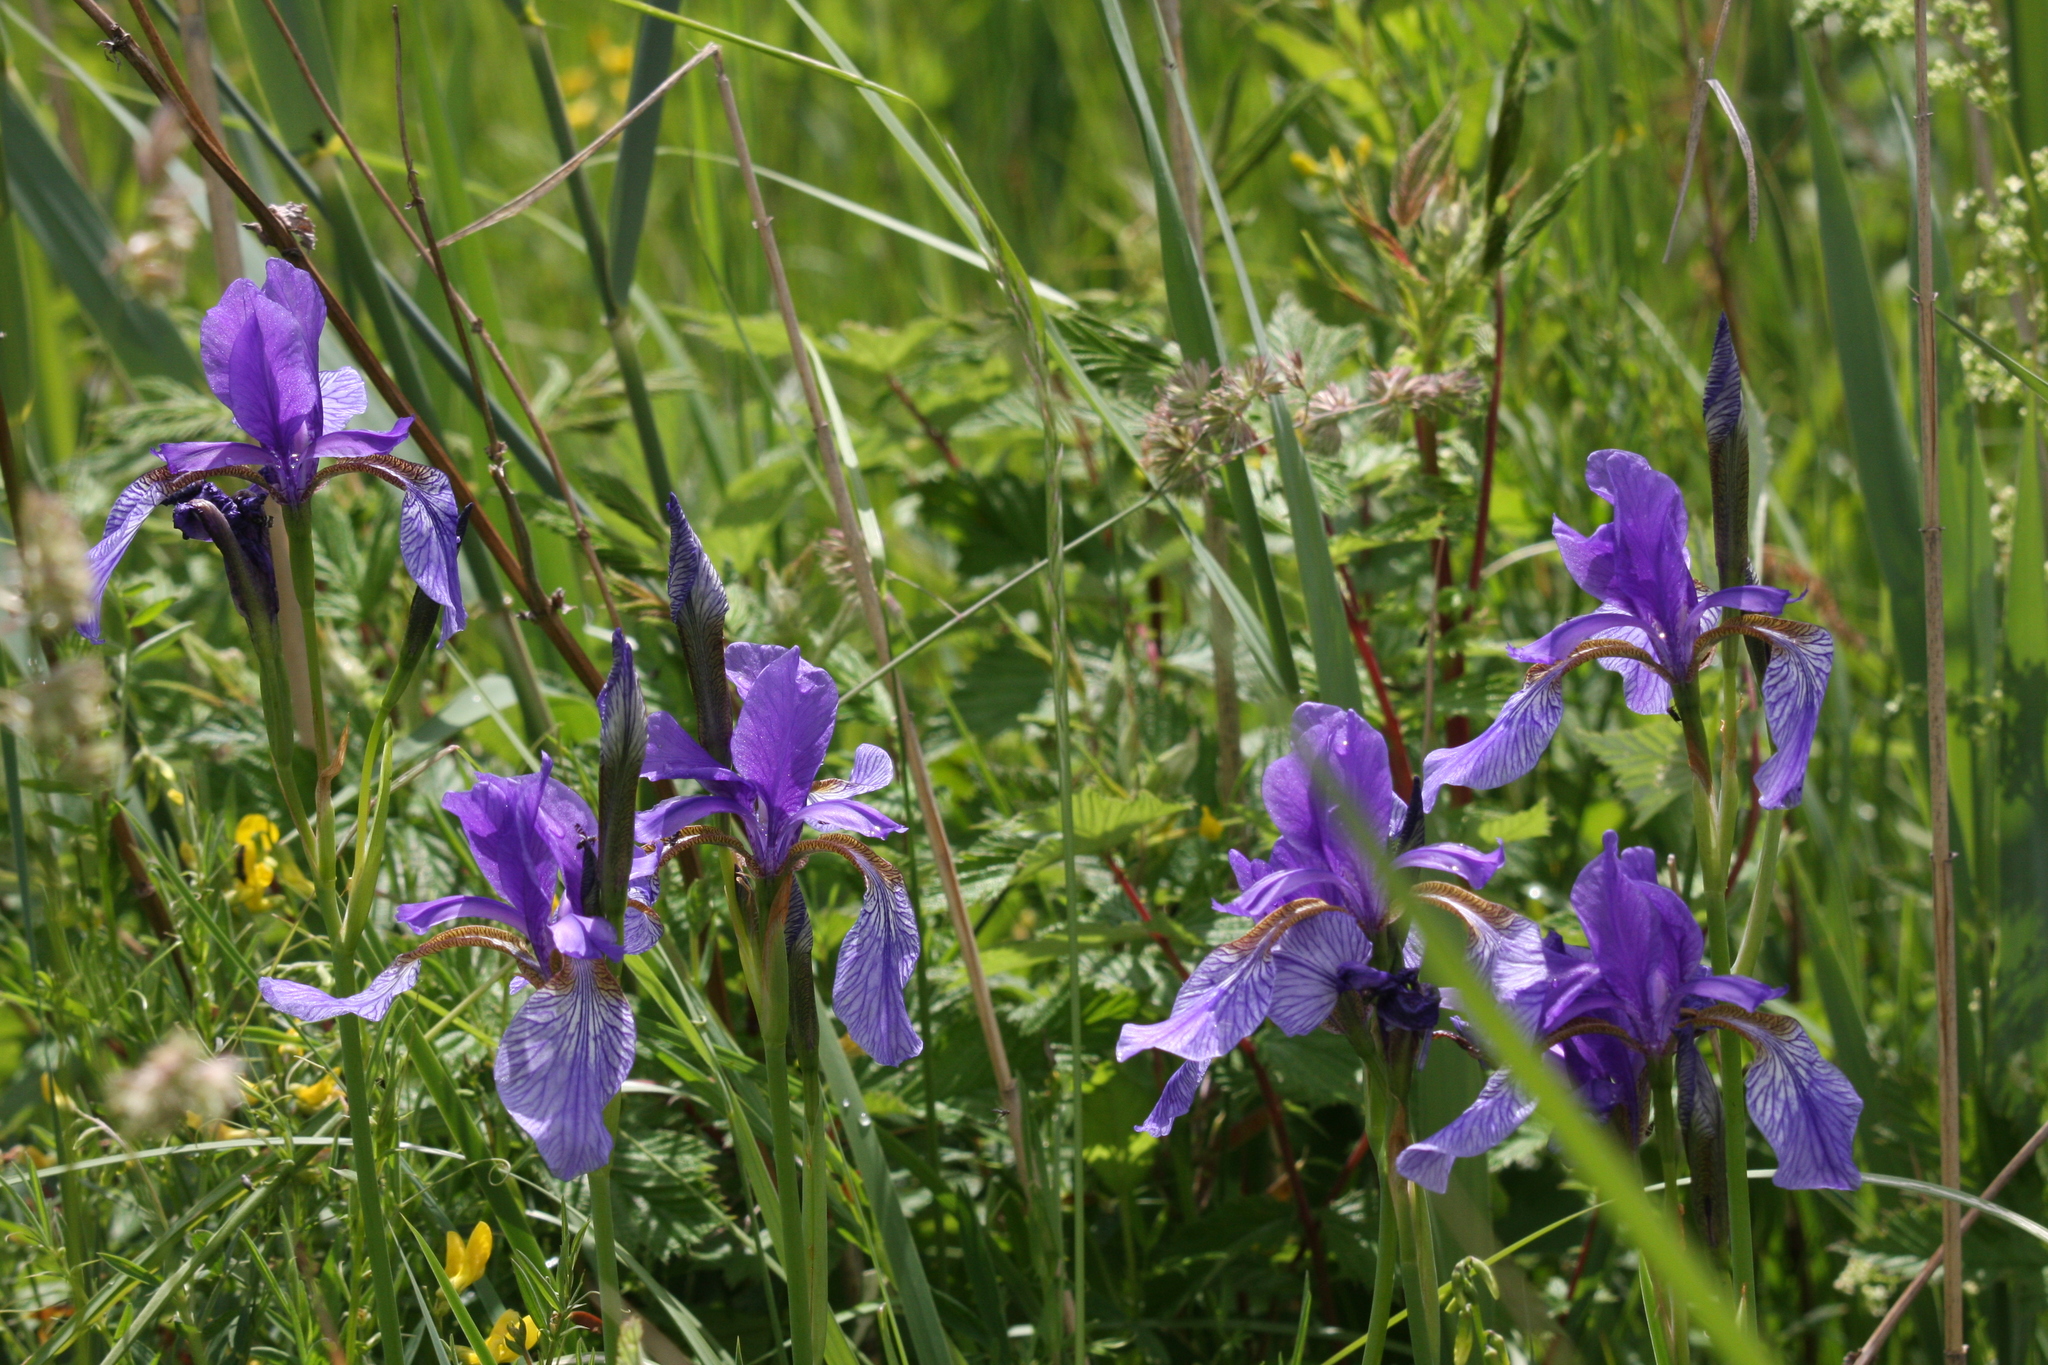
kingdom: Plantae
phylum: Tracheophyta
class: Liliopsida
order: Asparagales
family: Iridaceae
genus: Iris
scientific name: Iris sibirica
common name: Siberian iris
